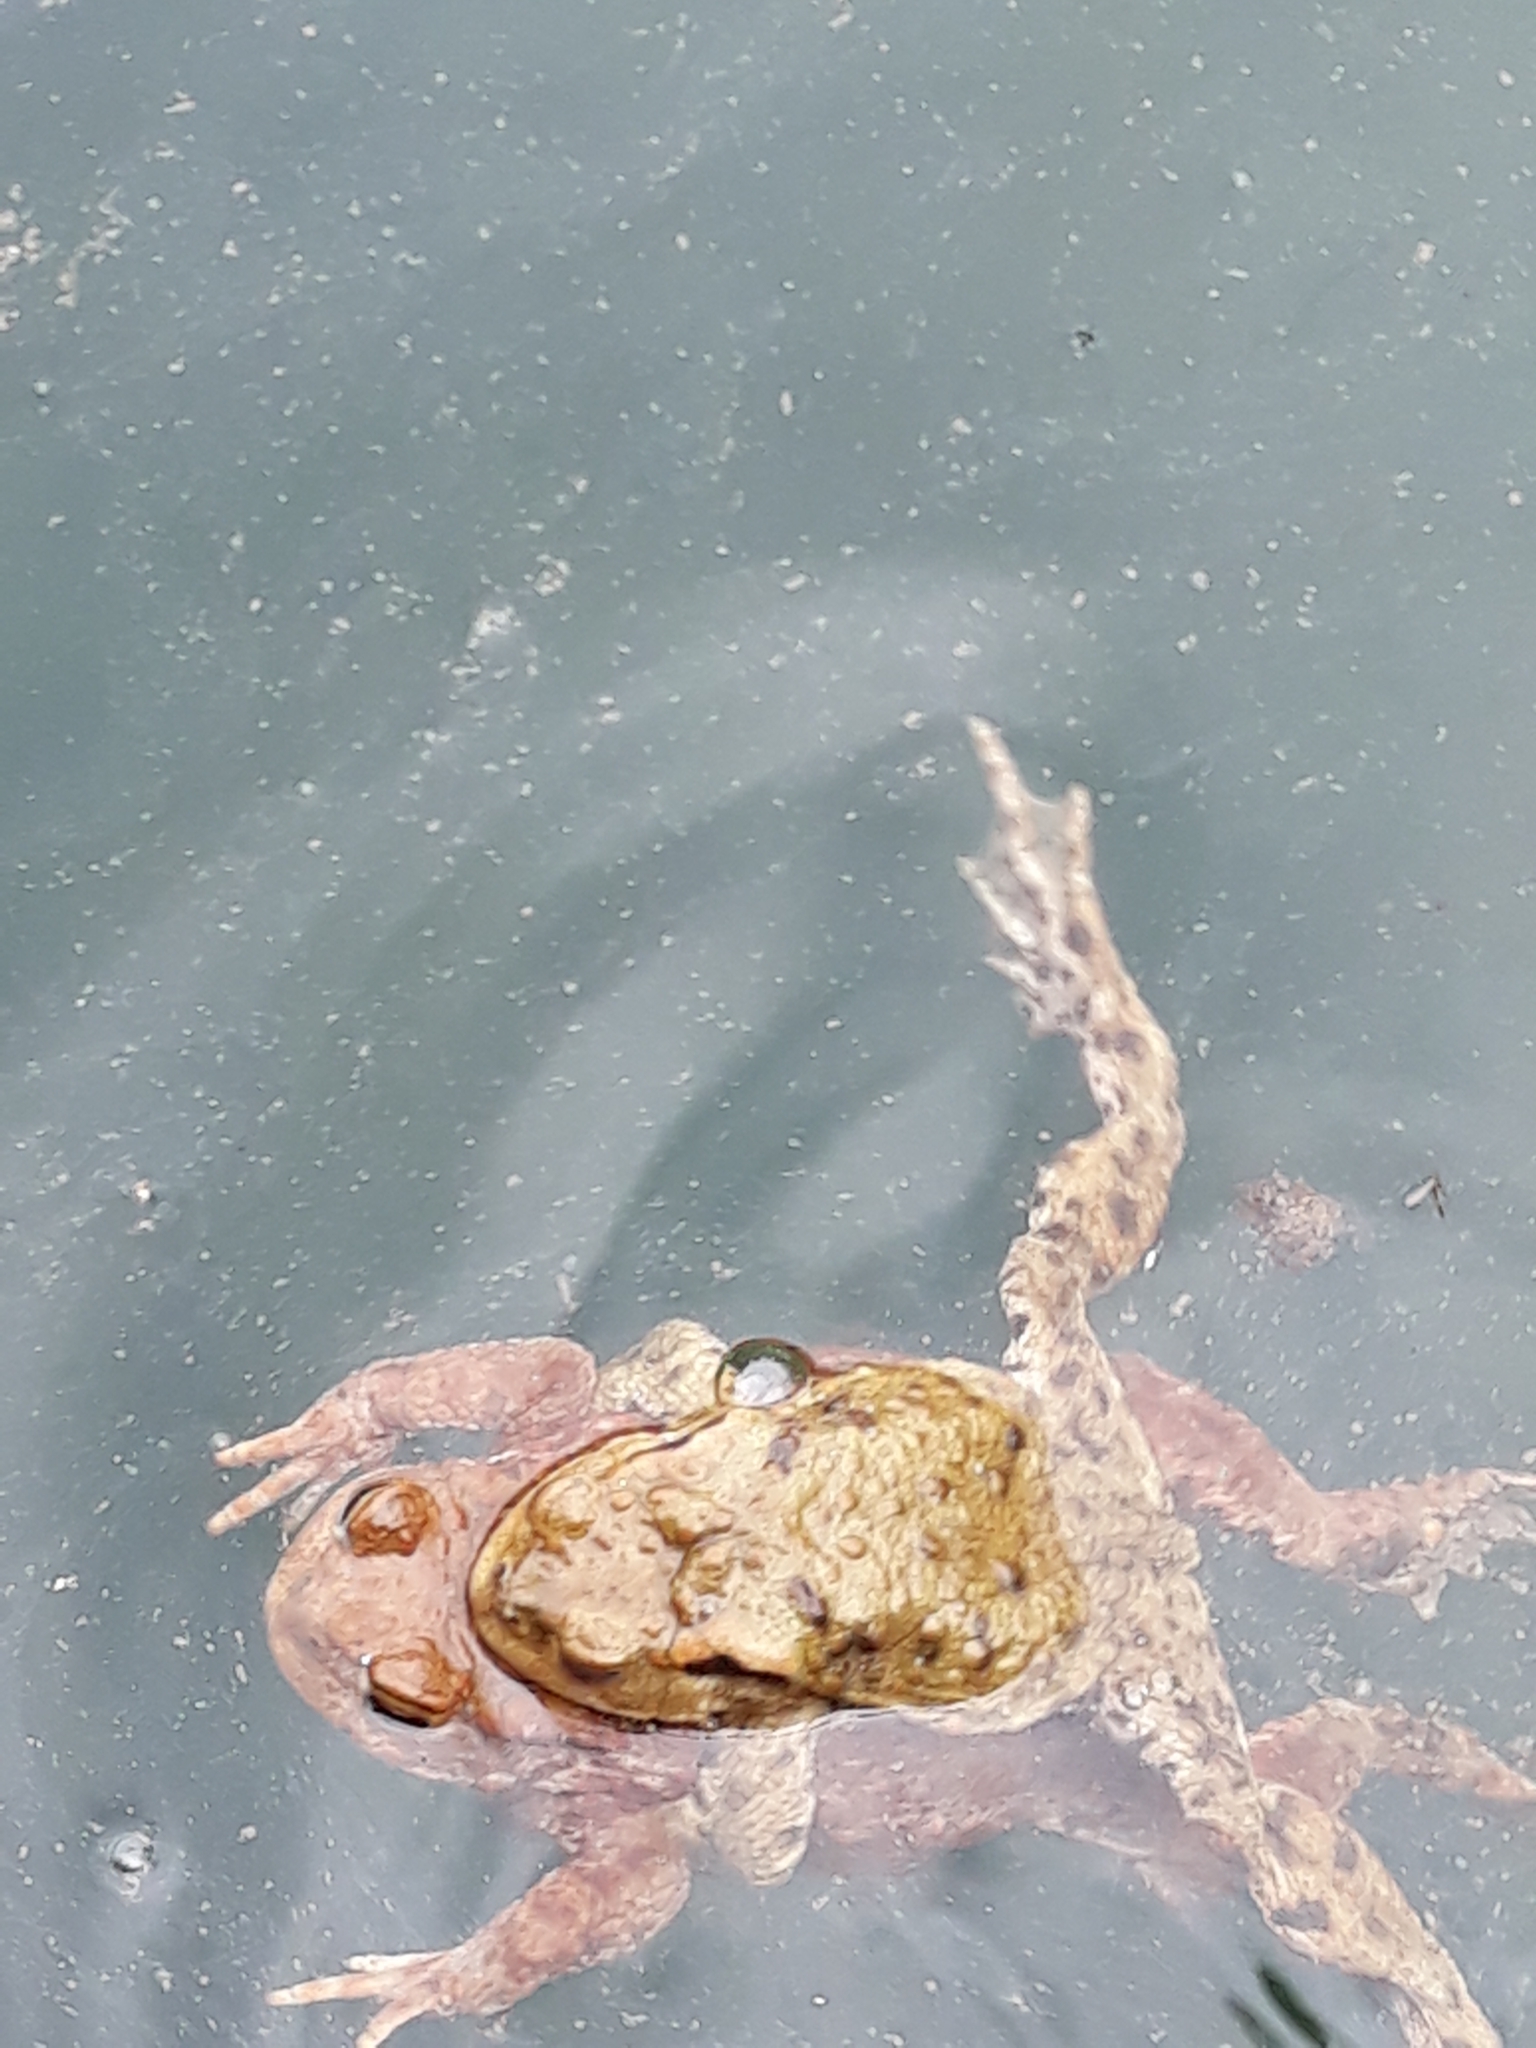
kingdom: Animalia
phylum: Chordata
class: Amphibia
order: Anura
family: Bufonidae
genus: Bufo
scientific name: Bufo bufo
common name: Common toad
